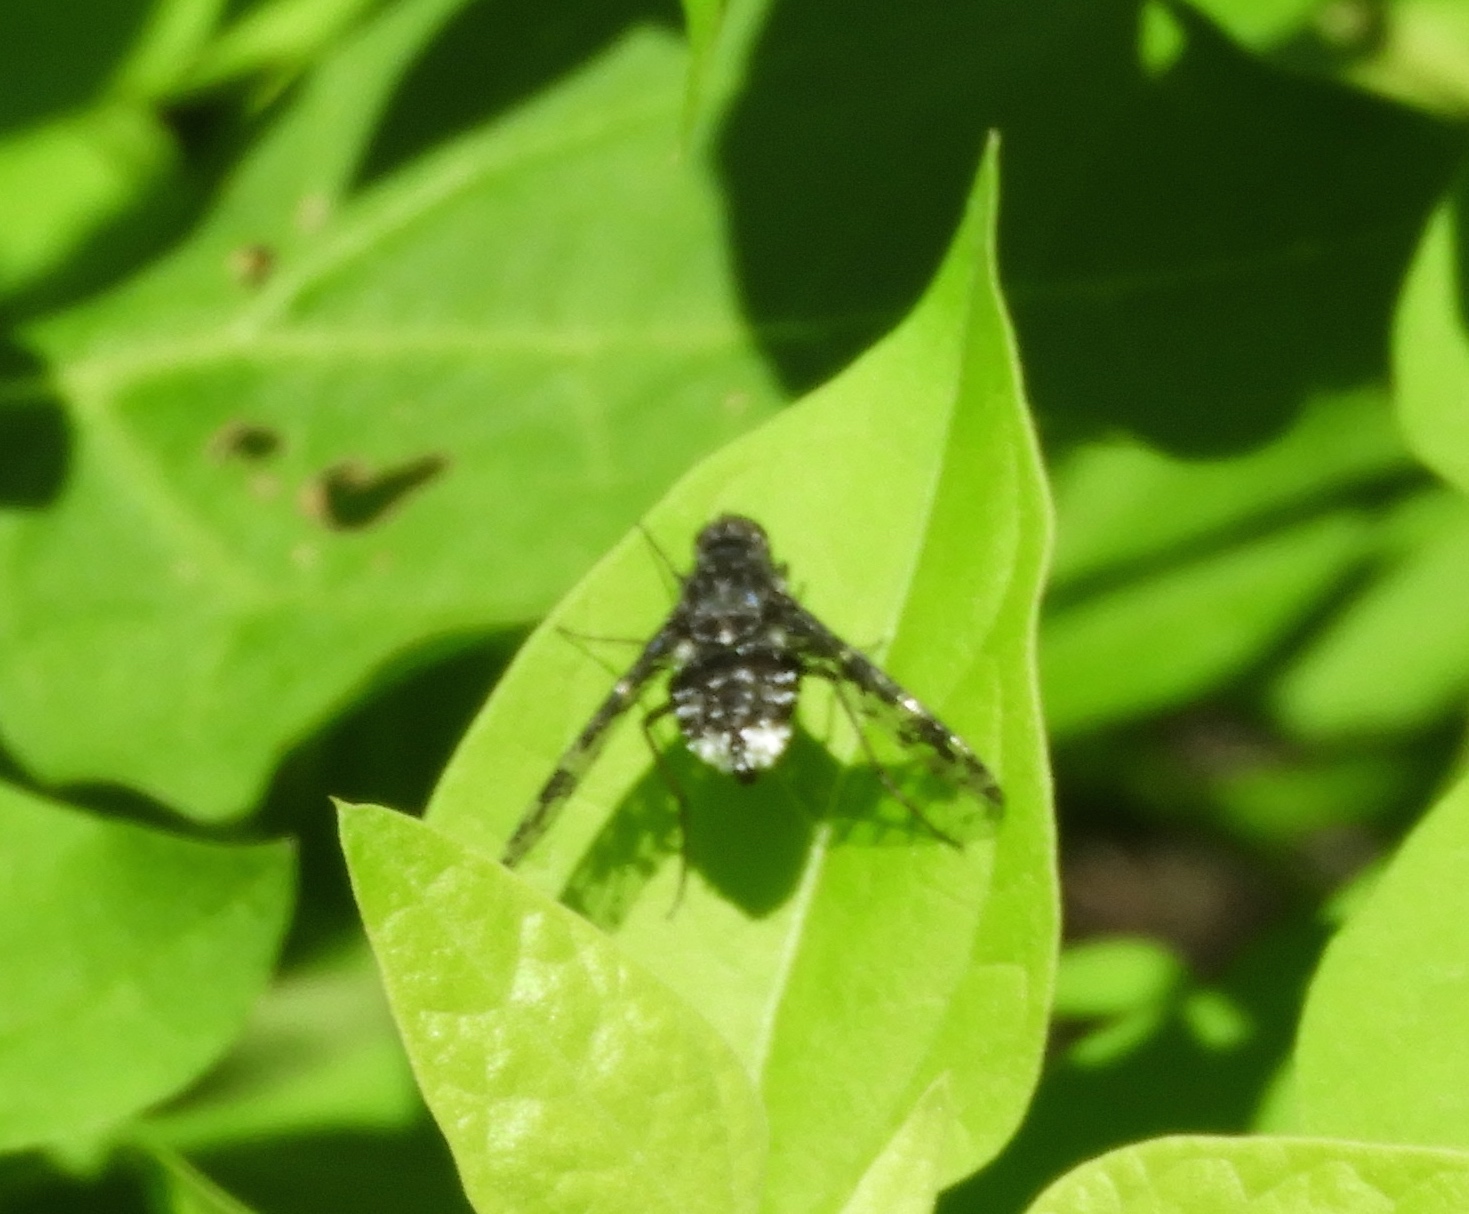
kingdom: Animalia
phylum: Arthropoda
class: Insecta
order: Diptera
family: Bombyliidae
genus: Anthrax
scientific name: Anthrax
